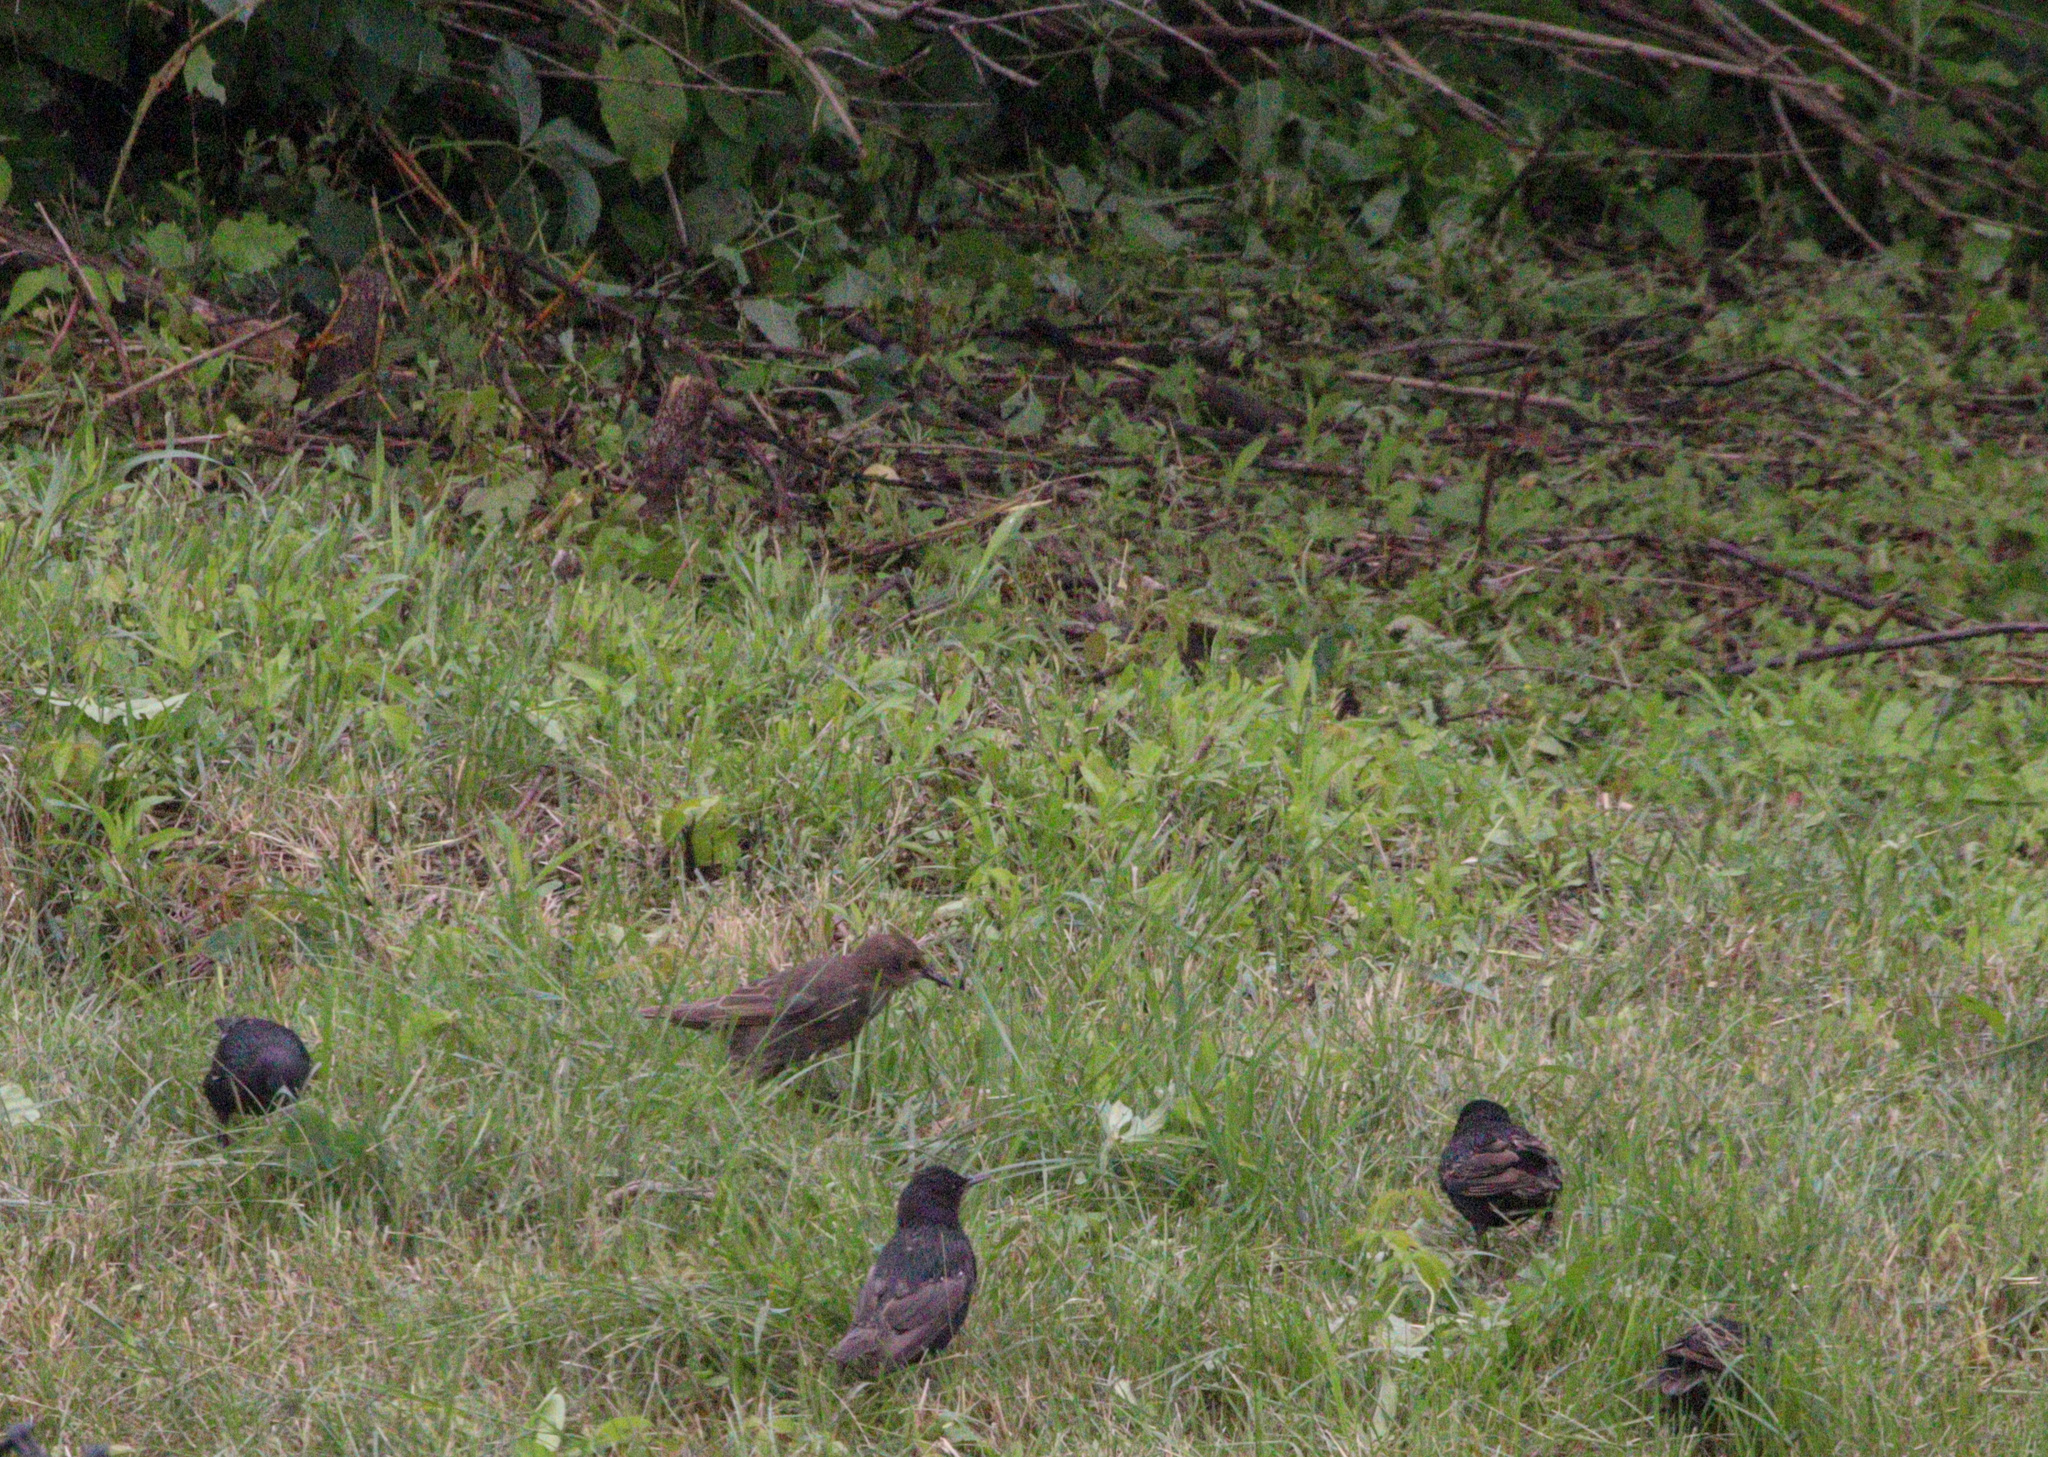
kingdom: Animalia
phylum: Chordata
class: Aves
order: Passeriformes
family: Sturnidae
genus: Sturnus
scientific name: Sturnus vulgaris
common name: Common starling
